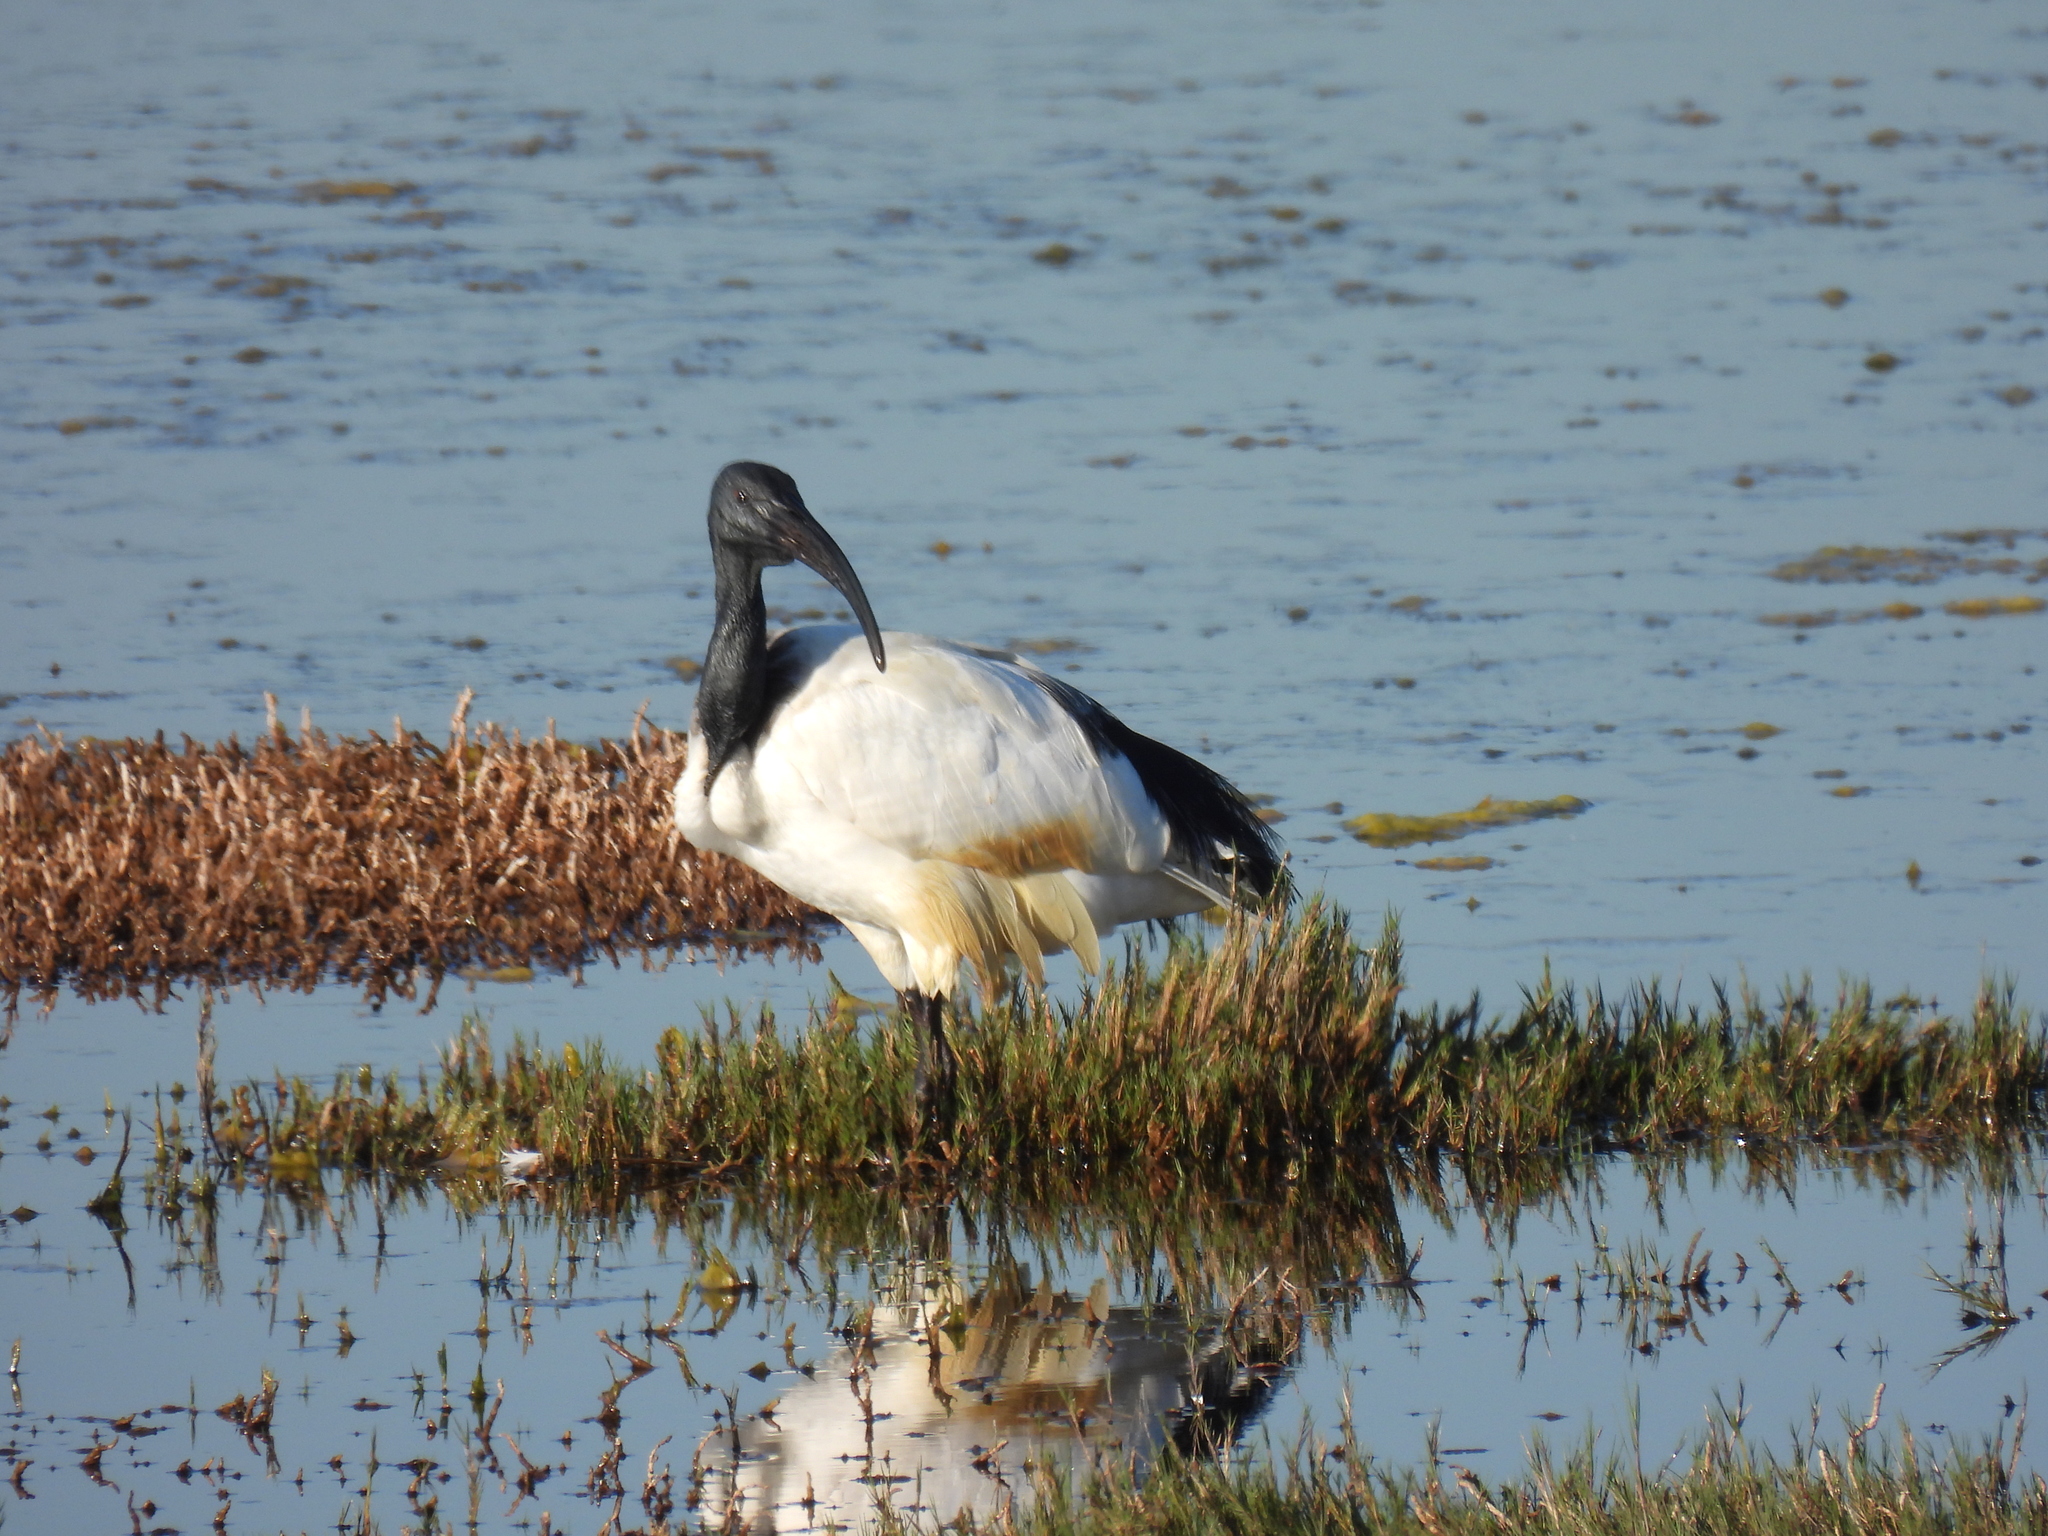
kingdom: Animalia
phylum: Chordata
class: Aves
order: Pelecaniformes
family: Threskiornithidae
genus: Threskiornis
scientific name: Threskiornis aethiopicus
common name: Sacred ibis
